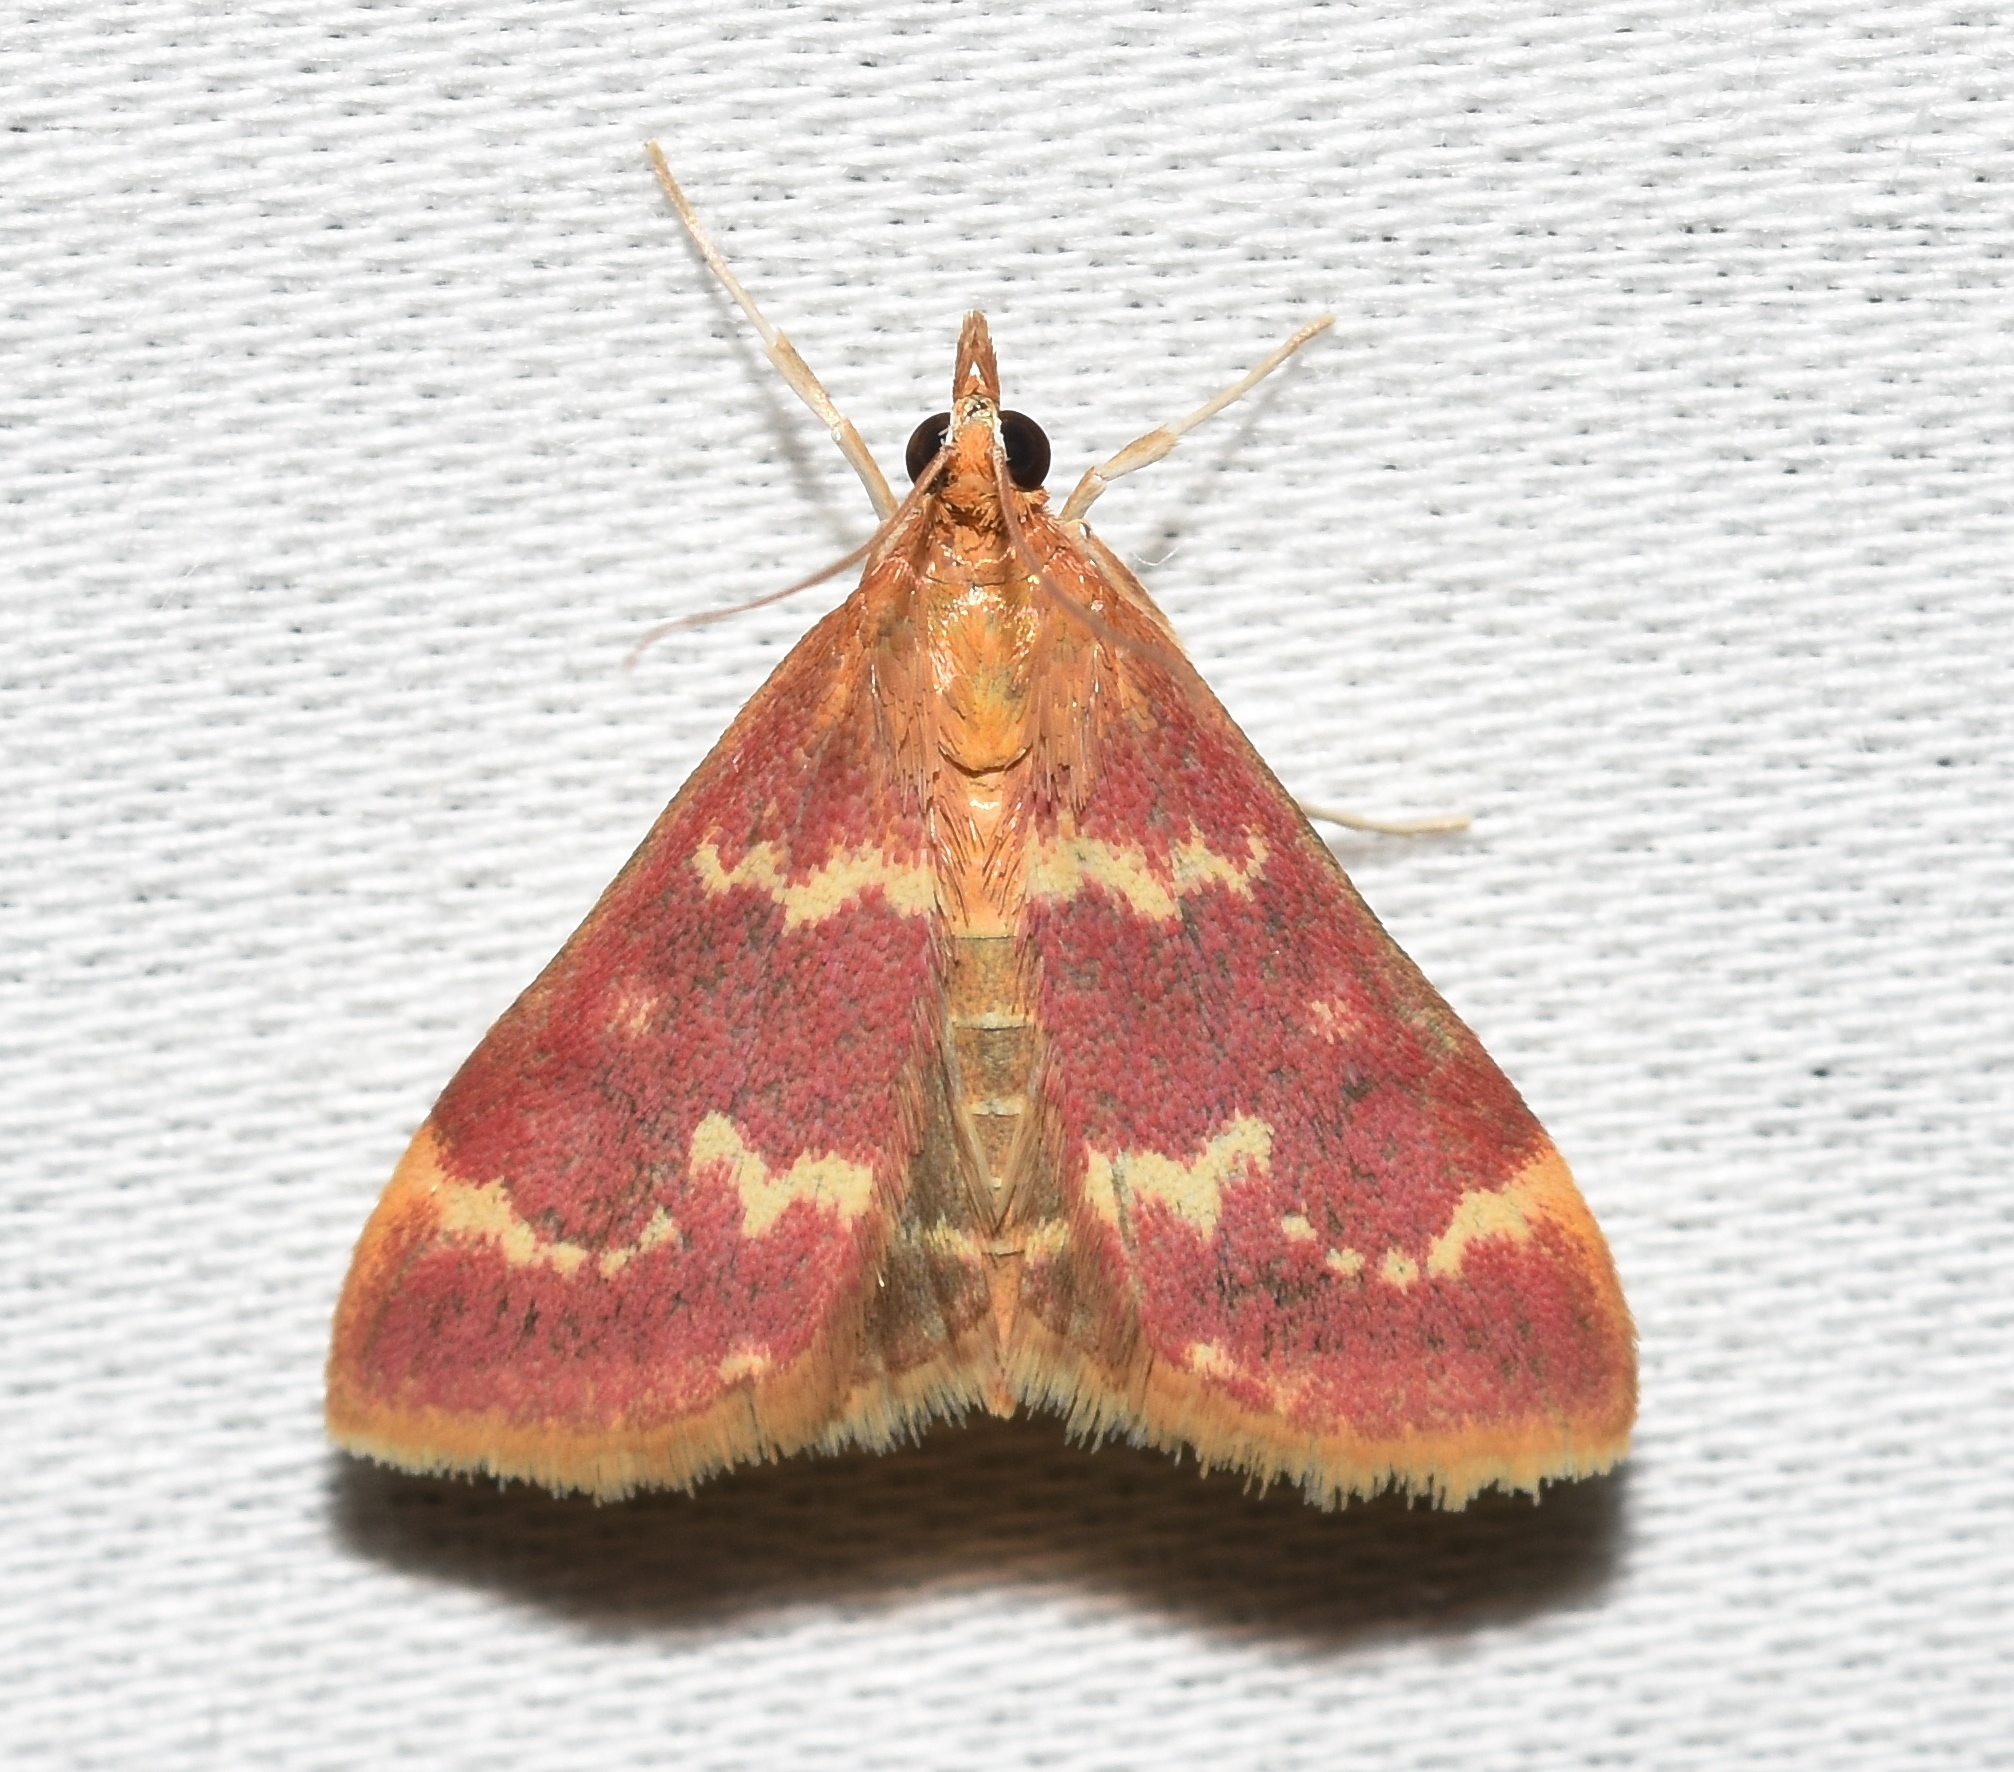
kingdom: Animalia
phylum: Arthropoda
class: Insecta
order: Lepidoptera
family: Crambidae
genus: Pyrausta
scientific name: Pyrausta signatalis
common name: Raspberry pyrausta moth
